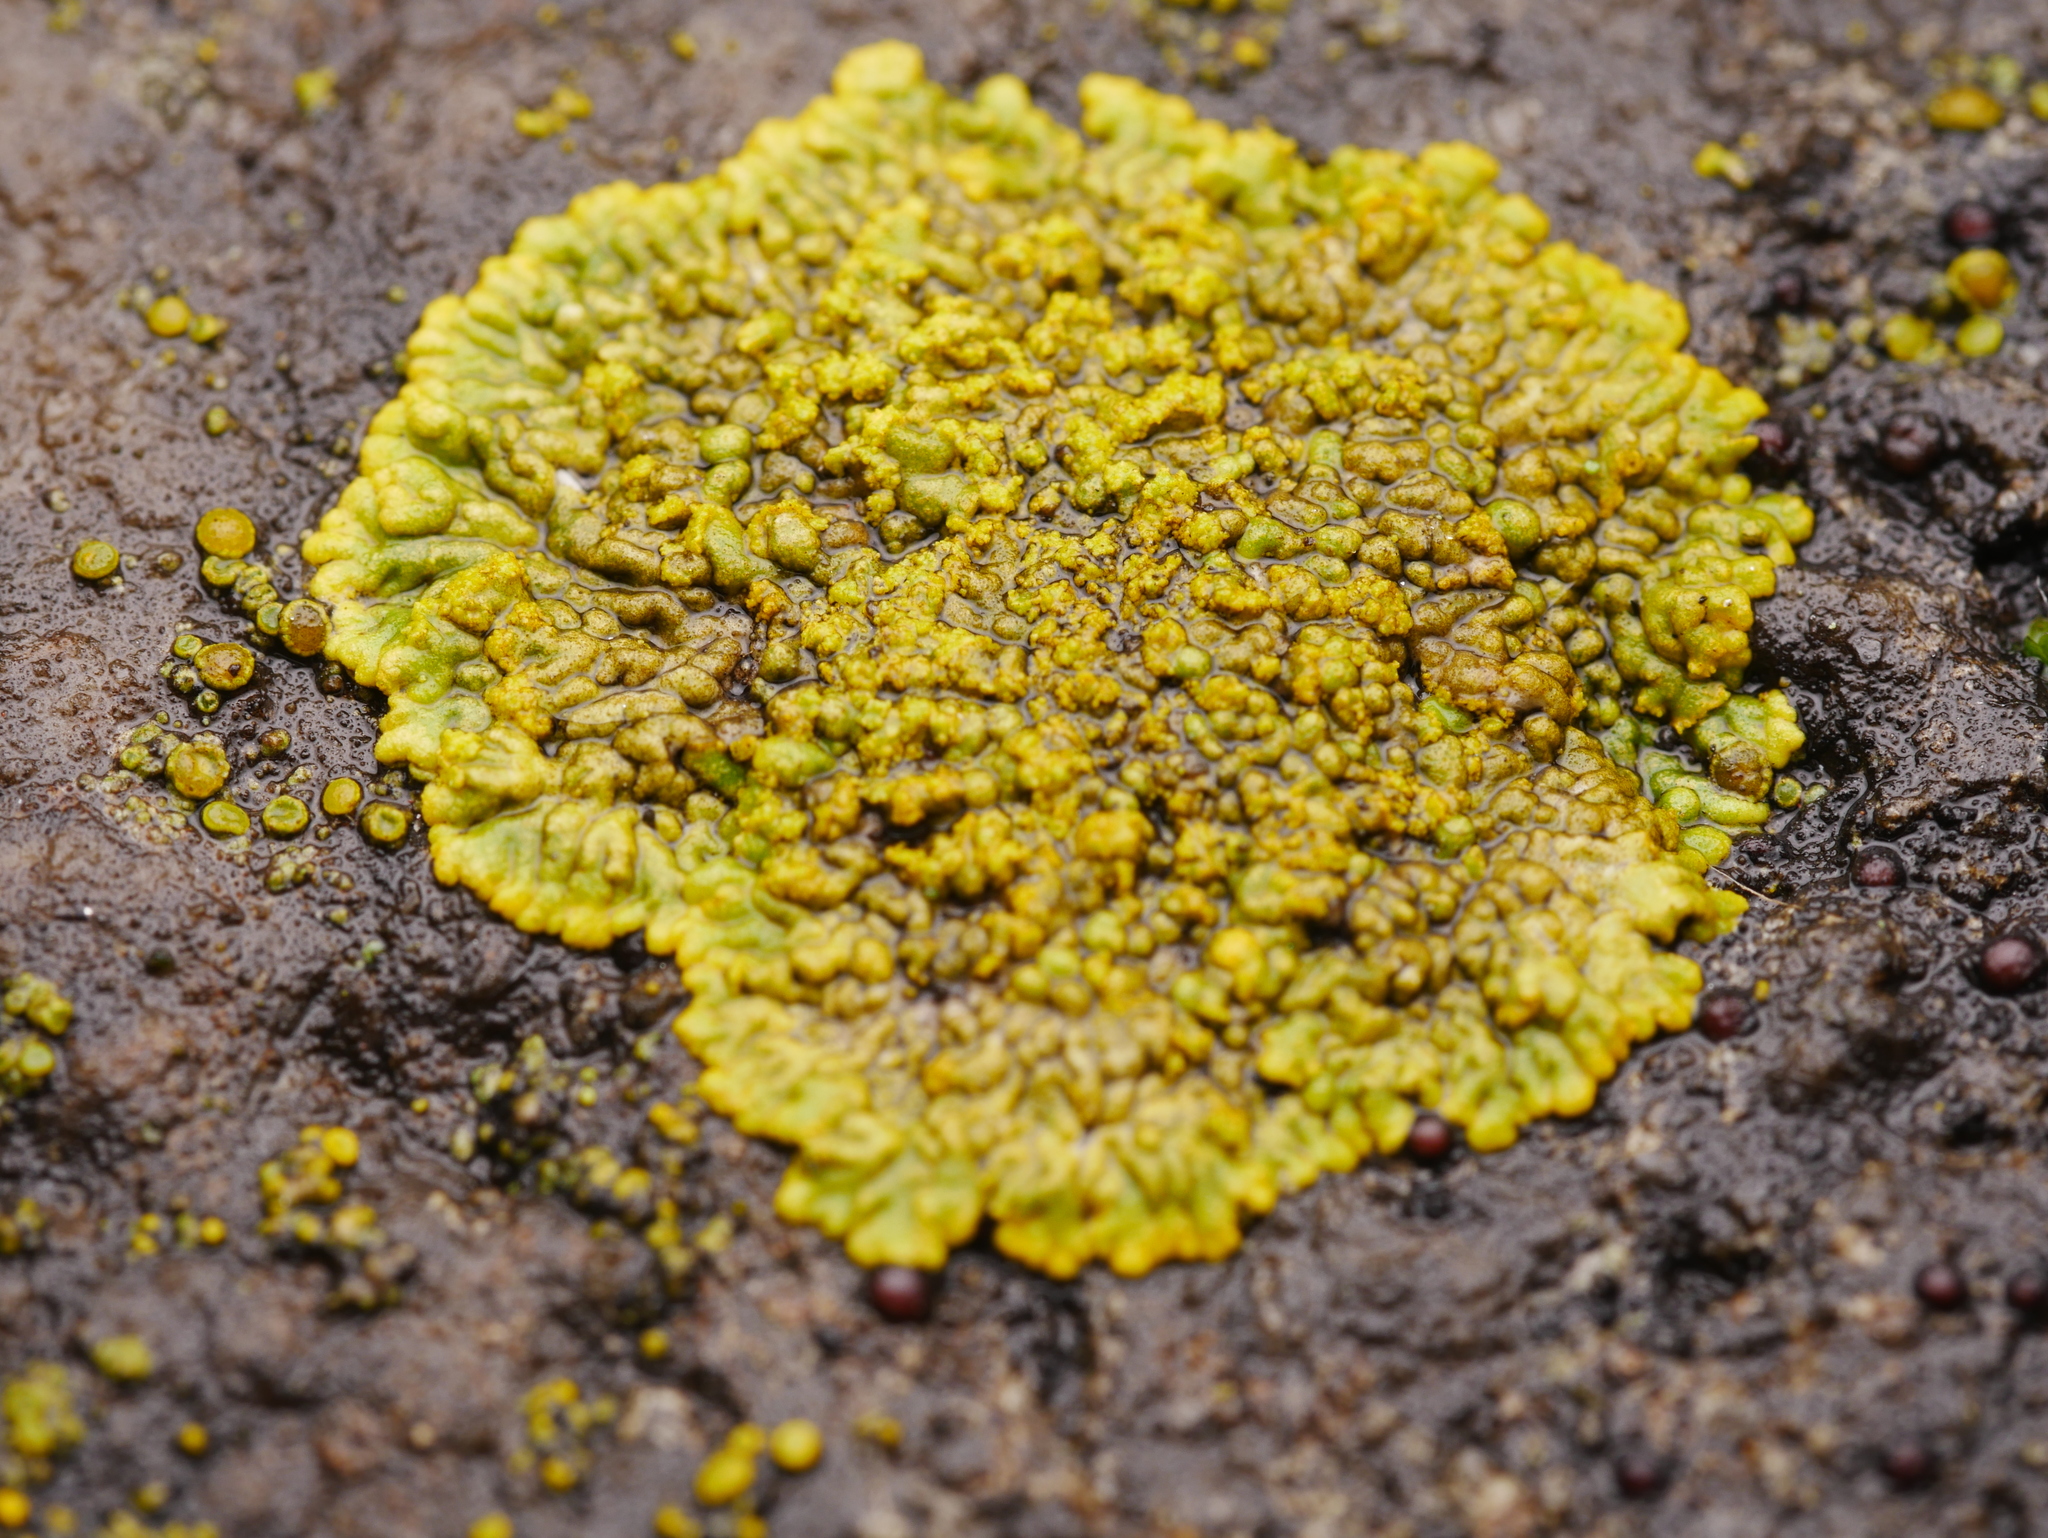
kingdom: Fungi
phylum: Ascomycota
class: Lecanoromycetes
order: Teloschistales
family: Teloschistaceae
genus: Calogaya
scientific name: Calogaya decipiens
